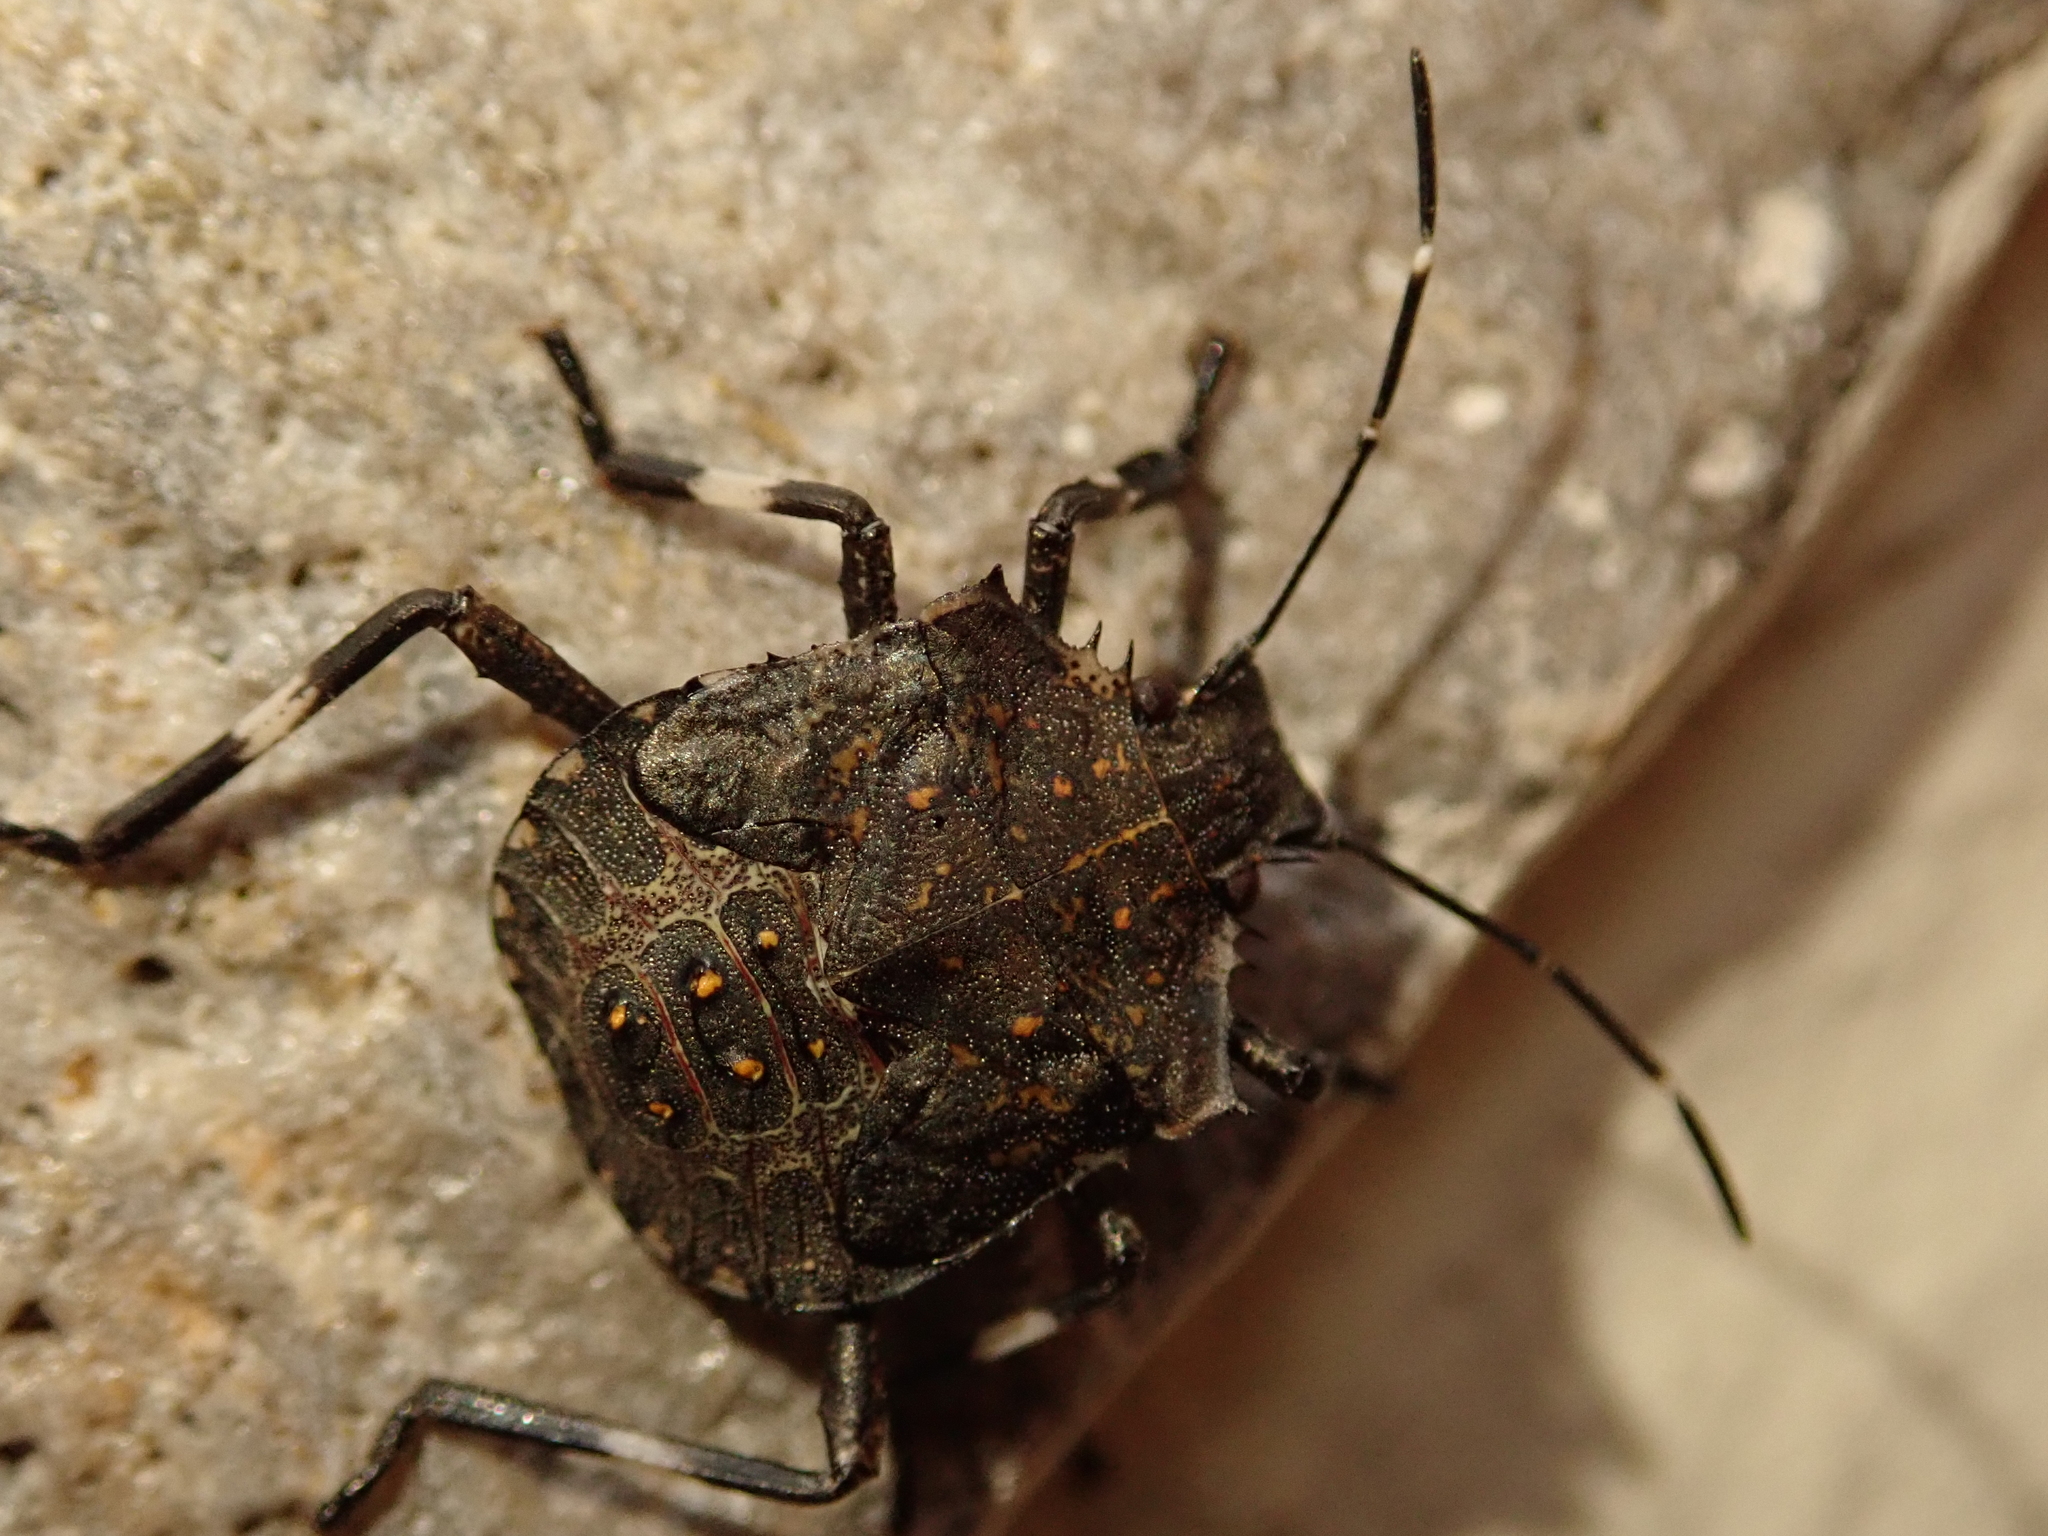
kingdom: Animalia
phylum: Arthropoda
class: Insecta
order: Hemiptera
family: Pentatomidae
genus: Halyomorpha
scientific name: Halyomorpha halys
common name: Brown marmorated stink bug
